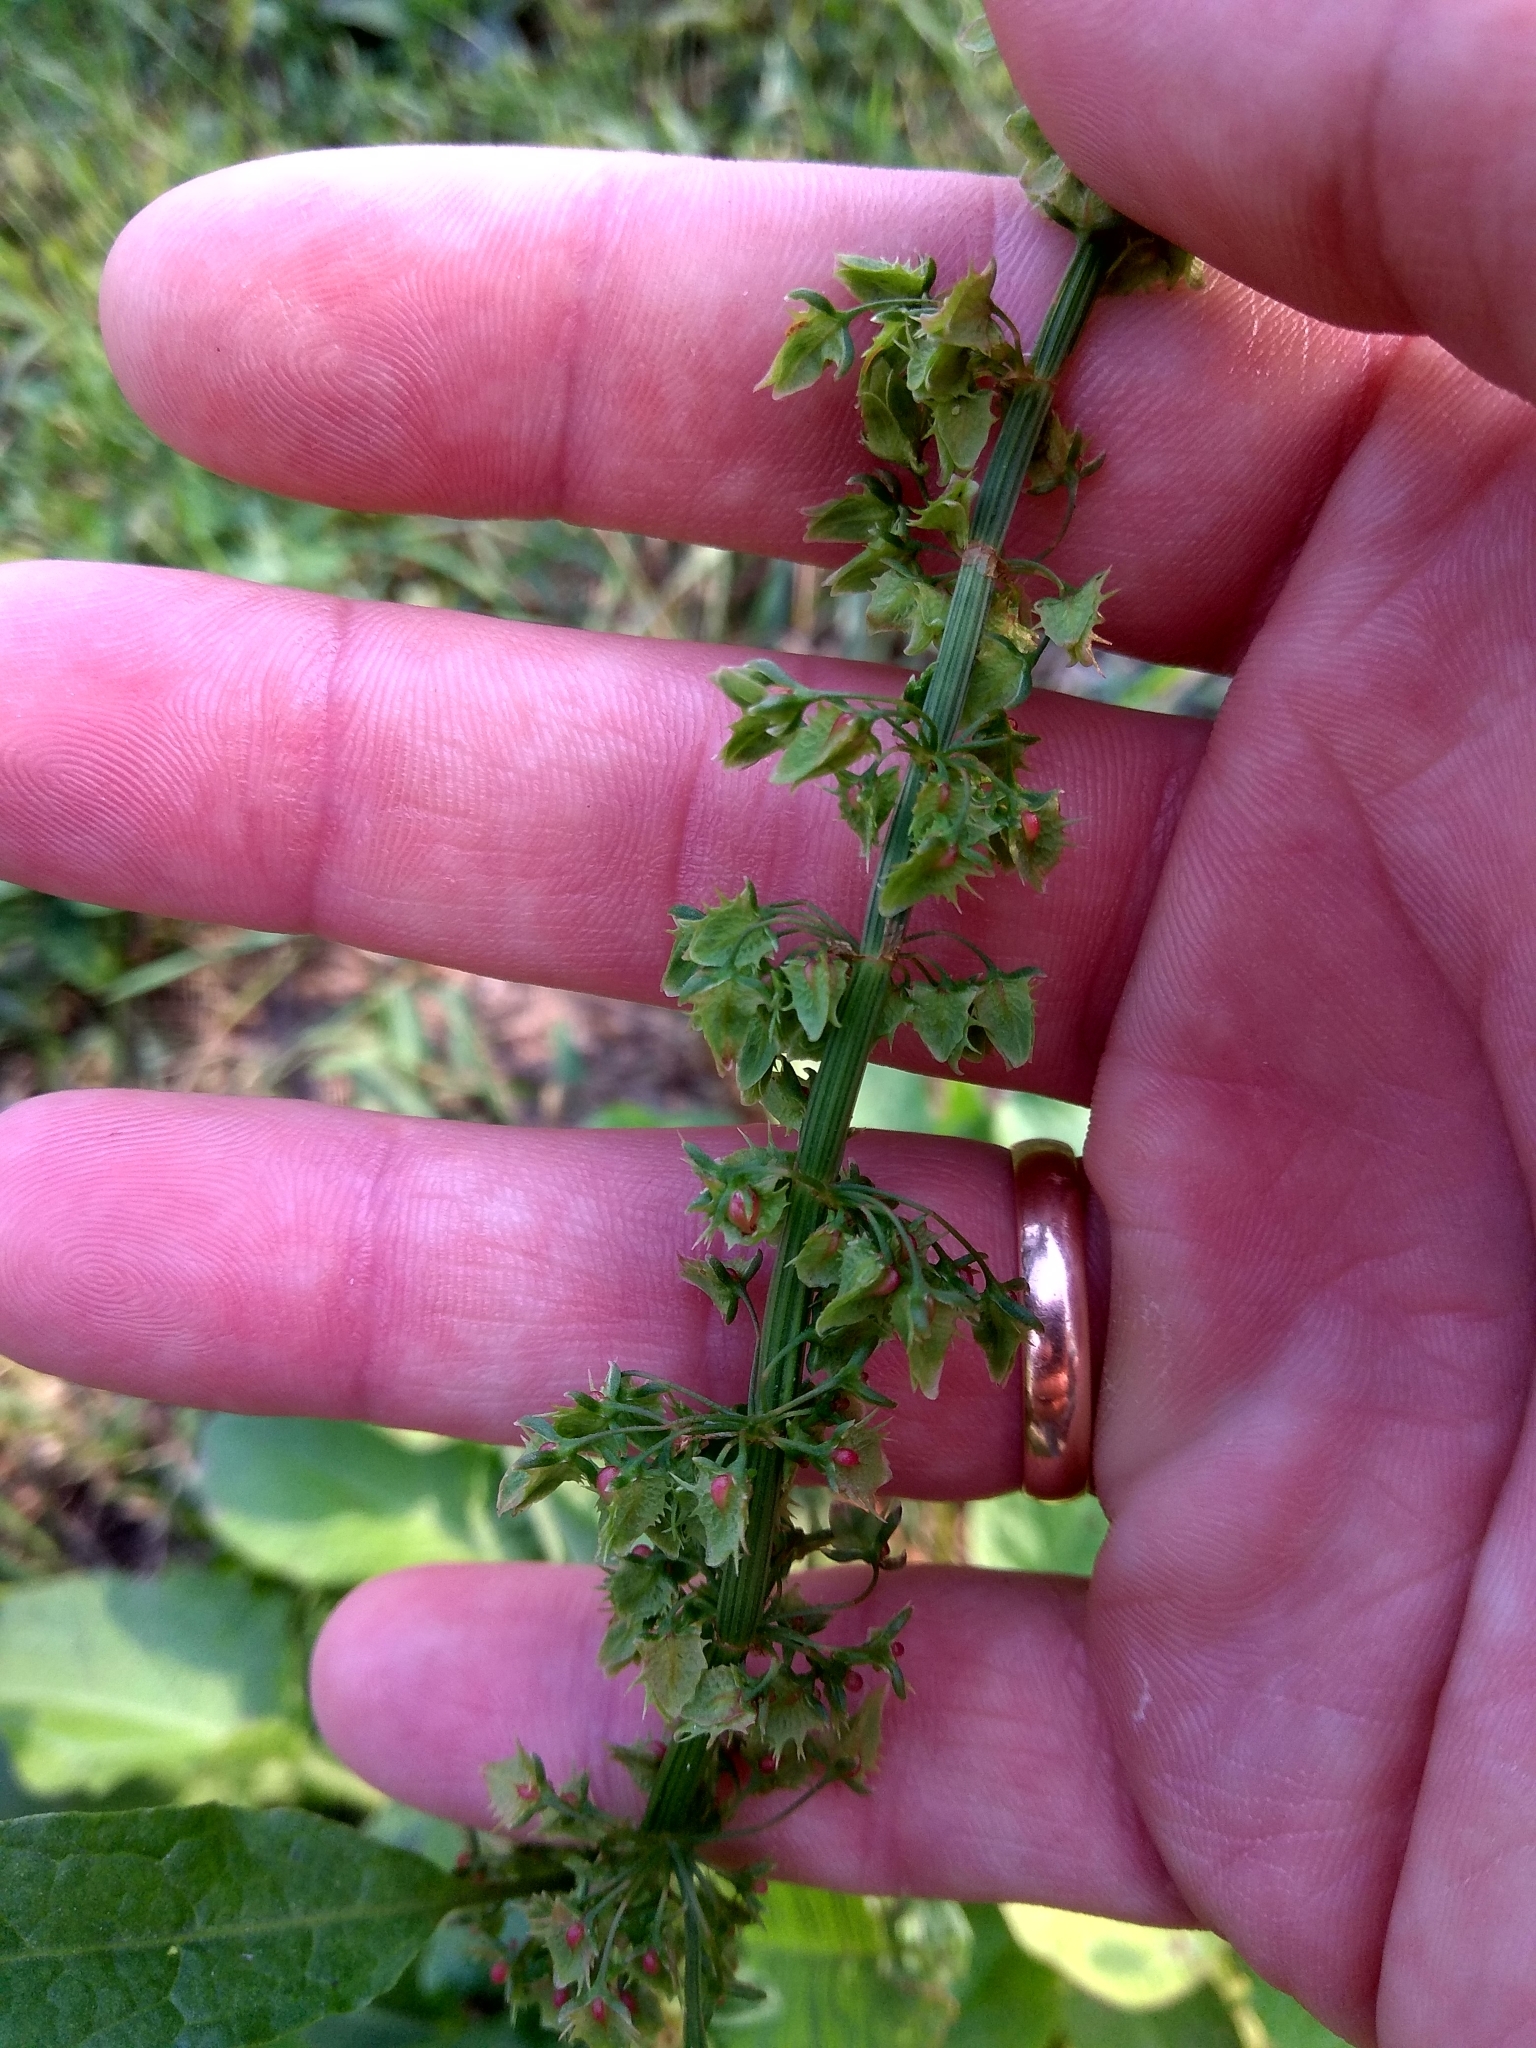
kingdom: Plantae
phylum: Tracheophyta
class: Magnoliopsida
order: Caryophyllales
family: Polygonaceae
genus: Rumex
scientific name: Rumex obtusifolius
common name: Bitter dock
